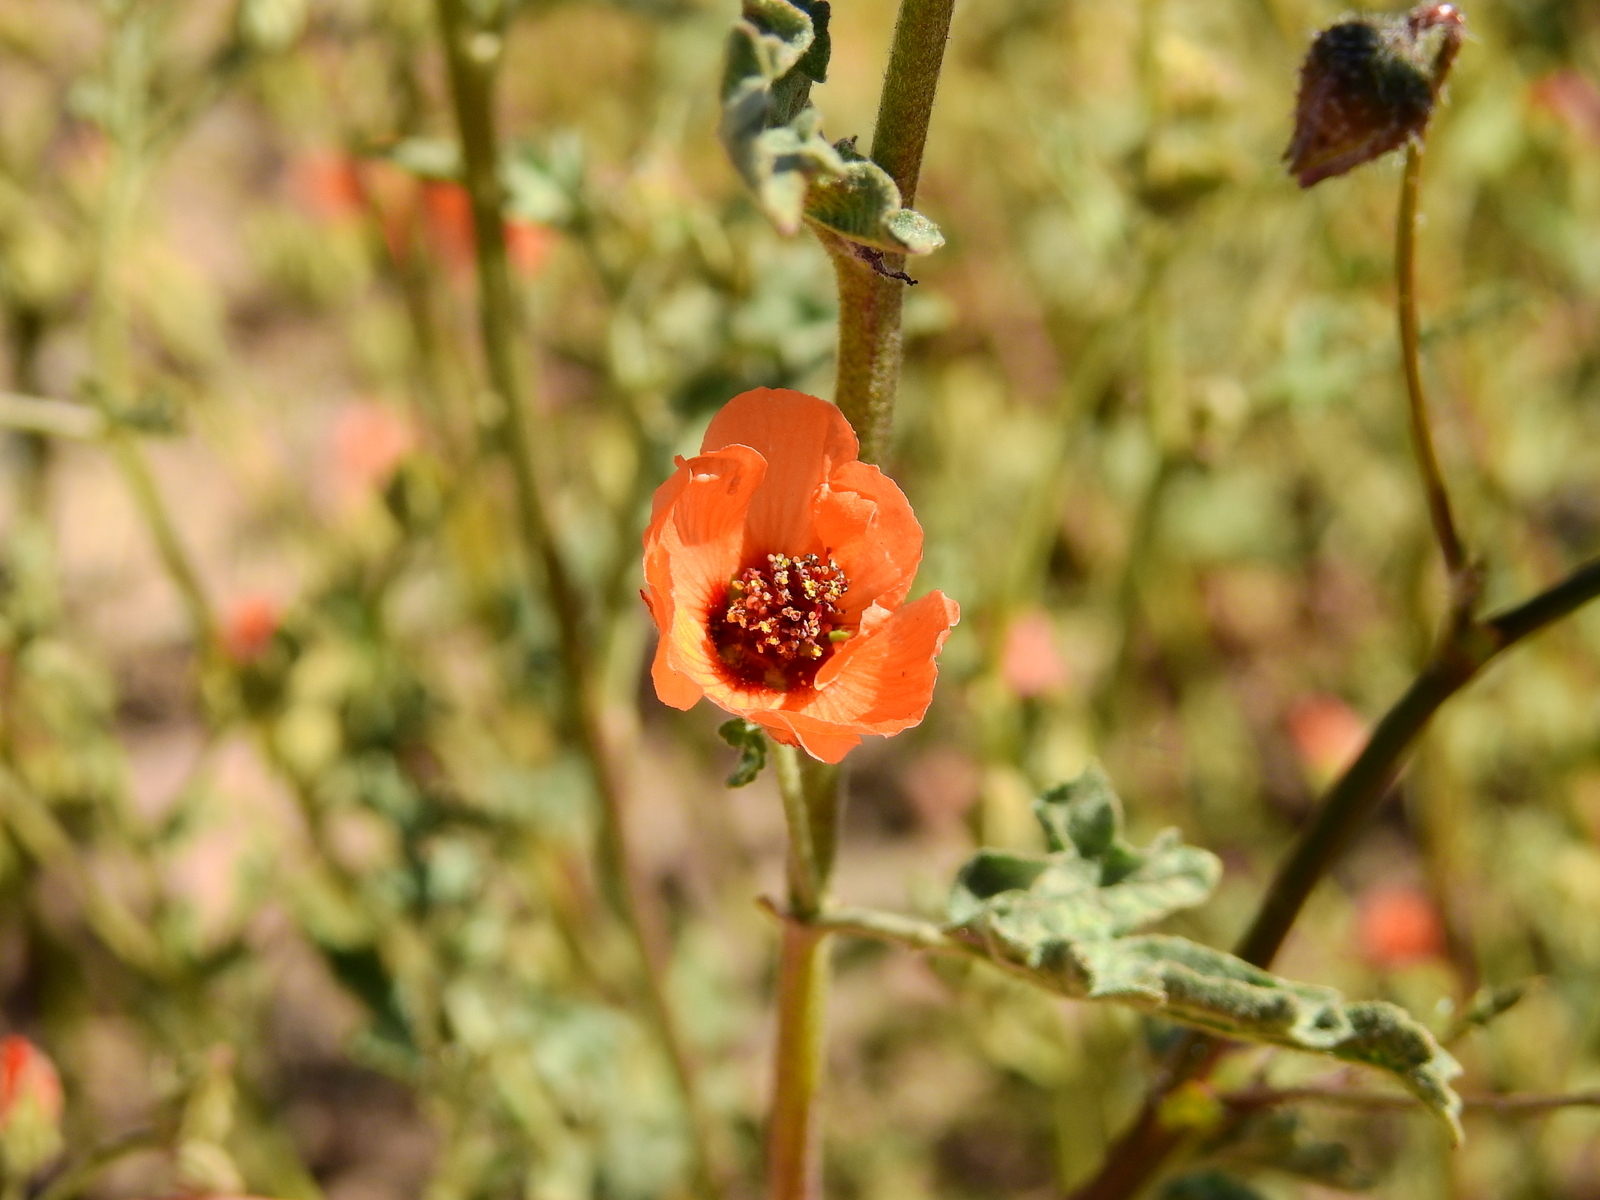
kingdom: Plantae
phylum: Tracheophyta
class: Magnoliopsida
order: Malvales
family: Malvaceae
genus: Sphaeralcea
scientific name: Sphaeralcea miniata
